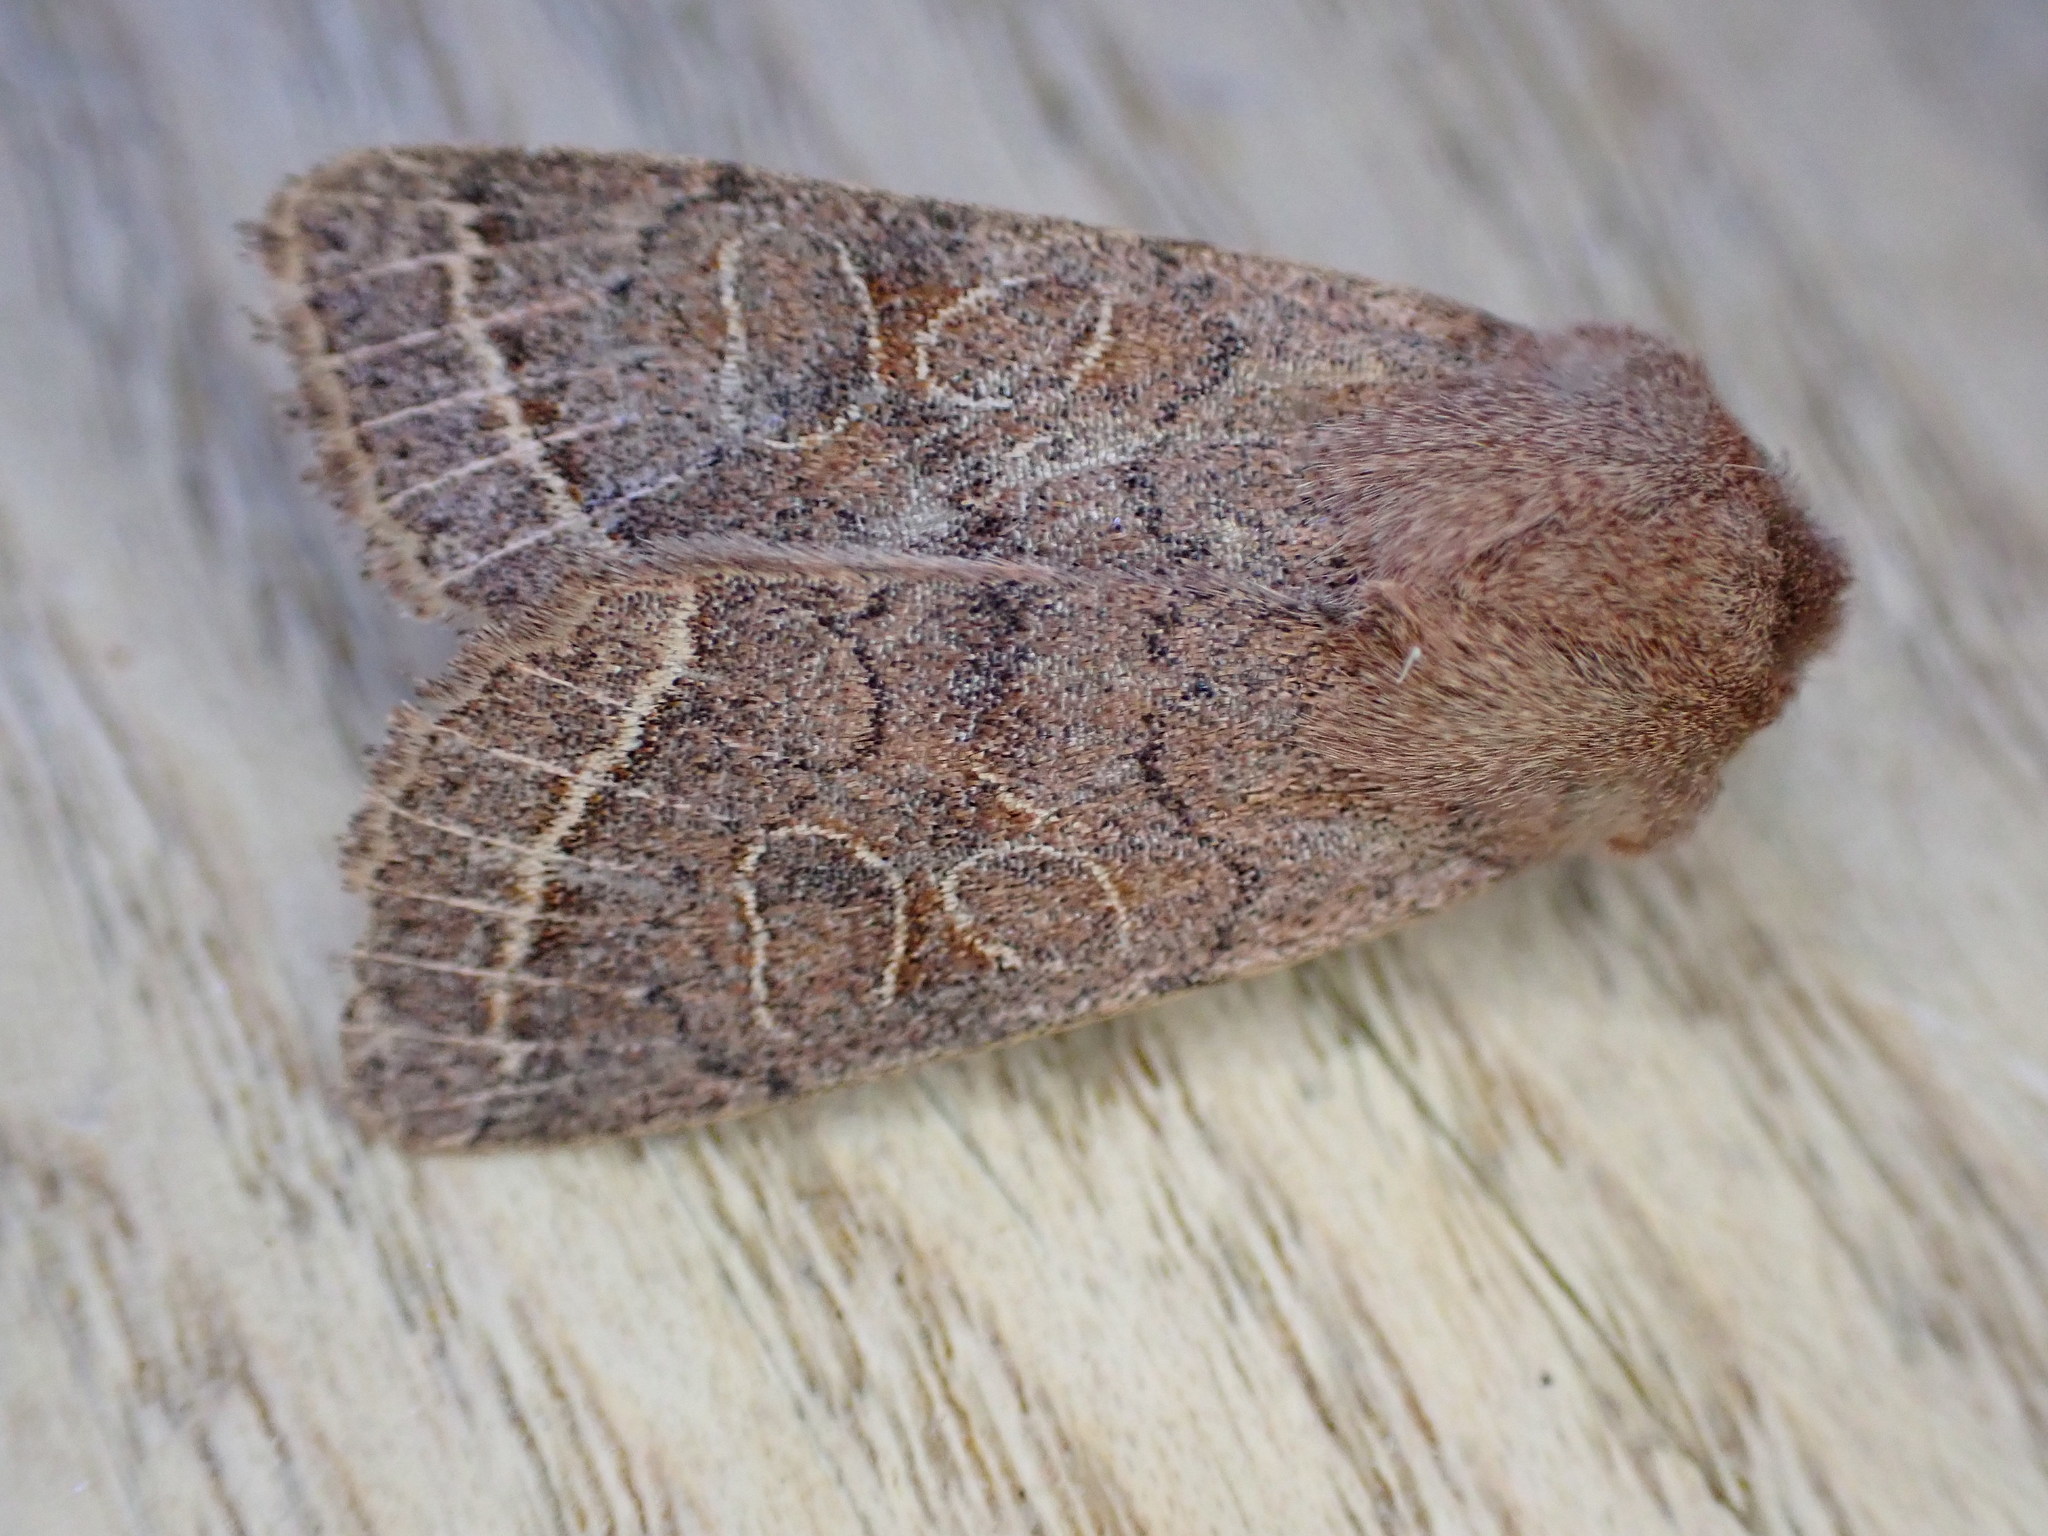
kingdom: Animalia
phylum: Arthropoda
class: Insecta
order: Lepidoptera
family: Noctuidae
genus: Orthosia
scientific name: Orthosia cerasi
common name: Common quaker
